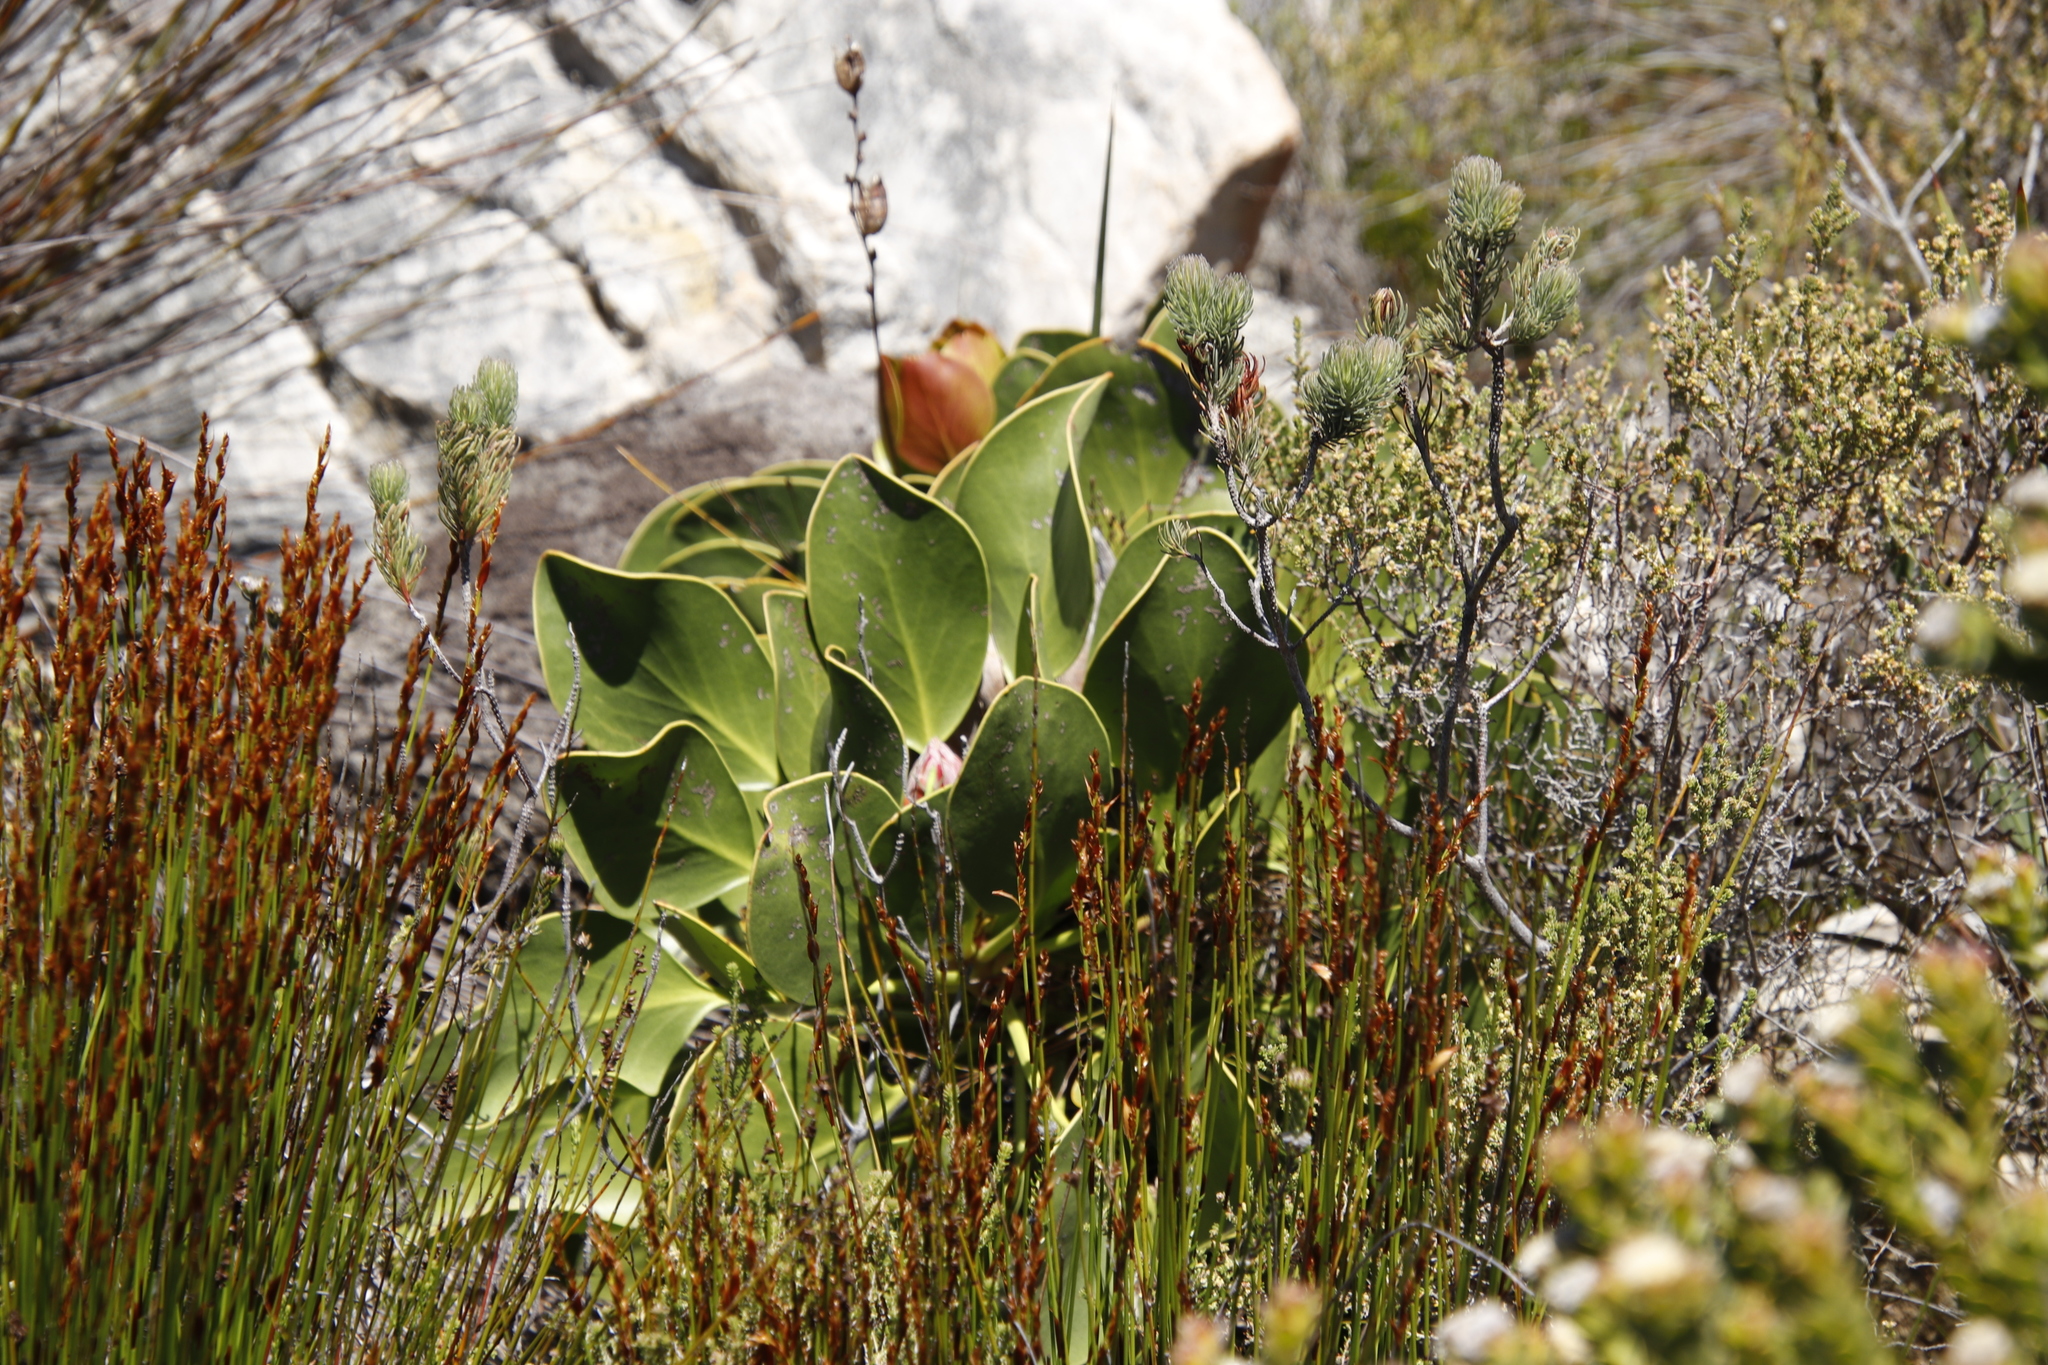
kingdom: Plantae
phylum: Tracheophyta
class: Magnoliopsida
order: Proteales
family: Proteaceae
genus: Protea
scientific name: Protea cynaroides
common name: King protea
